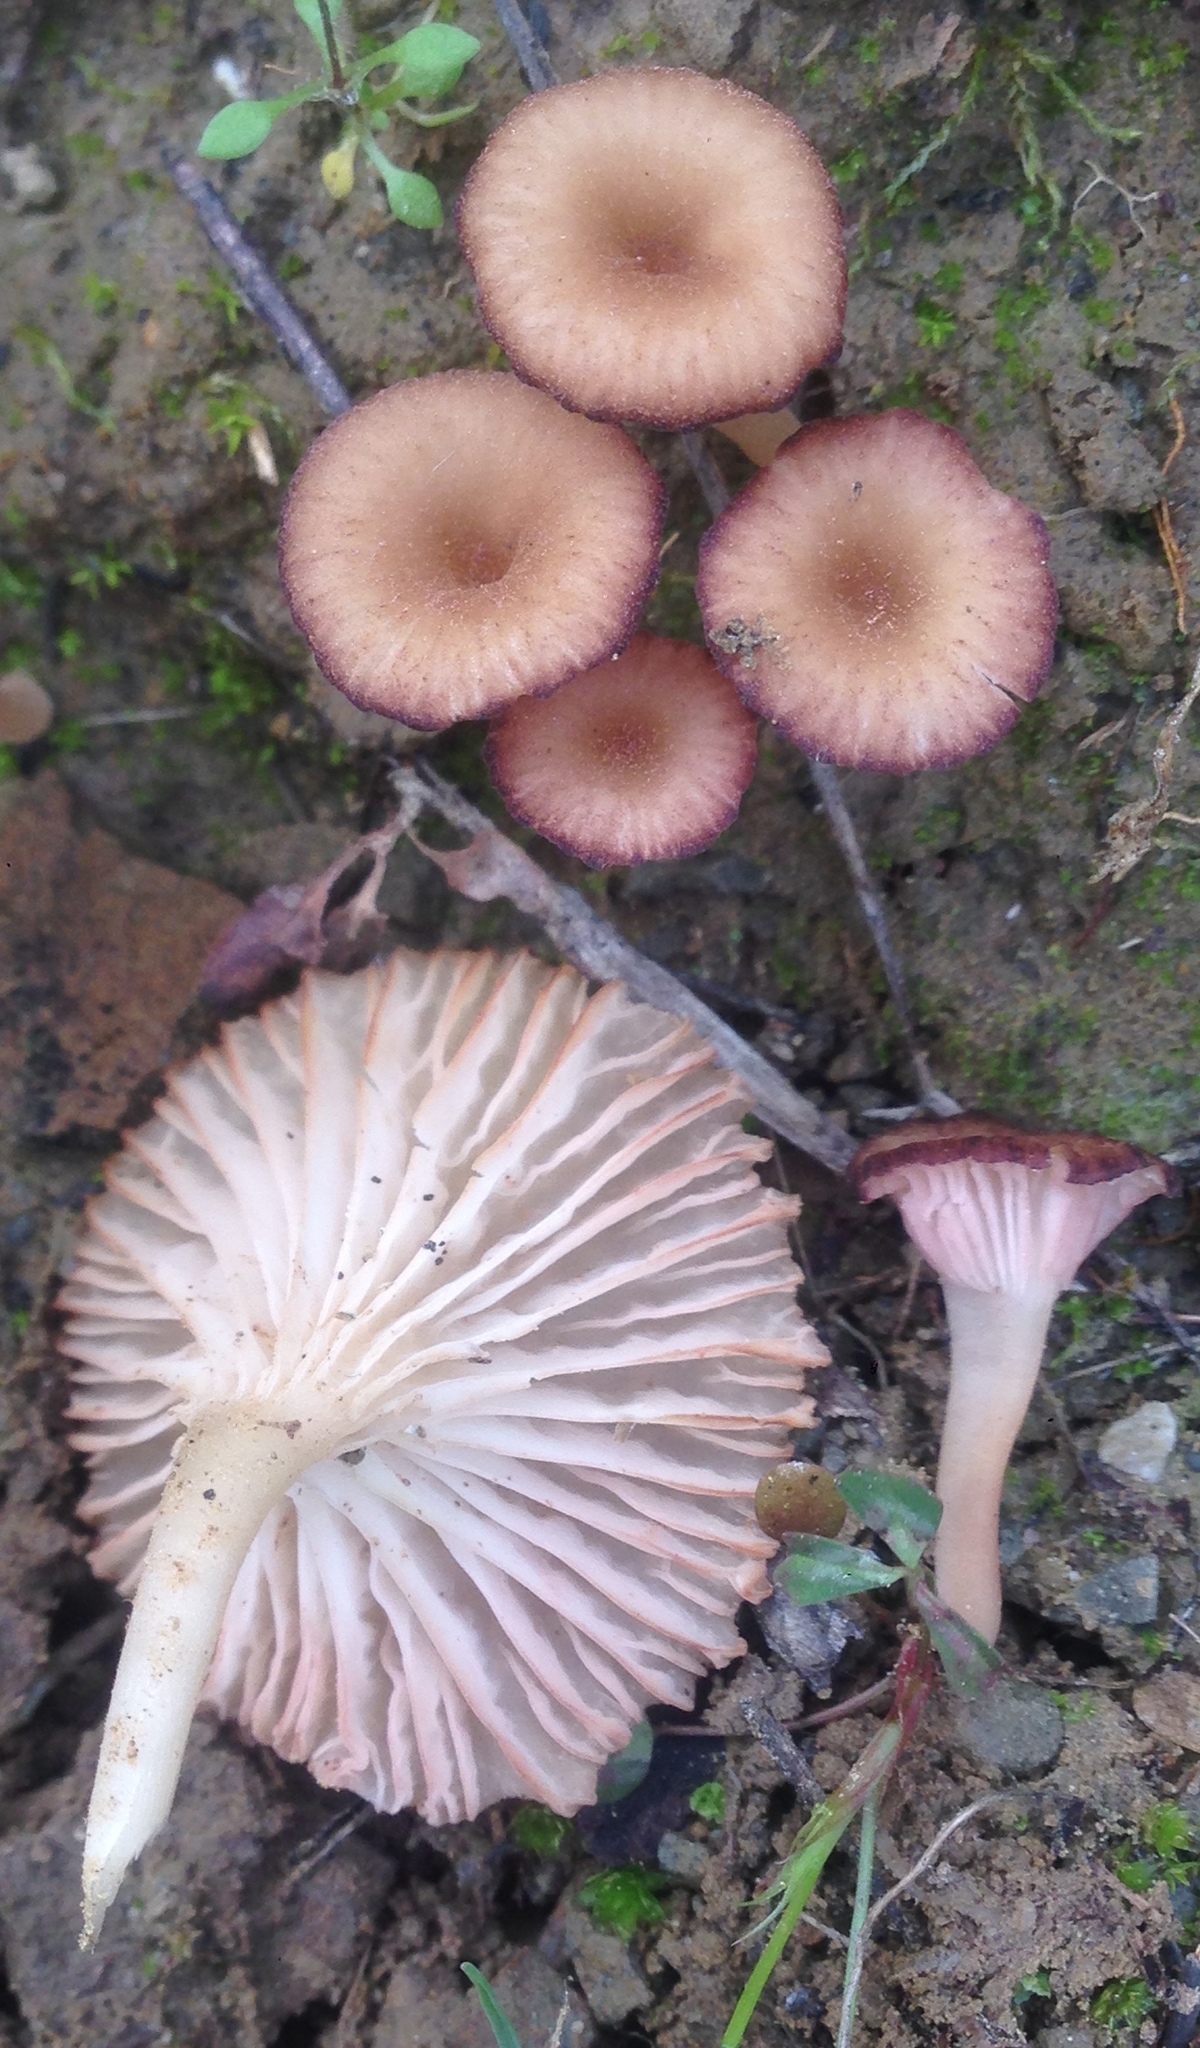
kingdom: Fungi
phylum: Basidiomycota
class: Agaricomycetes
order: Hymenochaetales
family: Rickenellaceae
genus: Contumyces
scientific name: Contumyces rosellus
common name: Rosy navel
